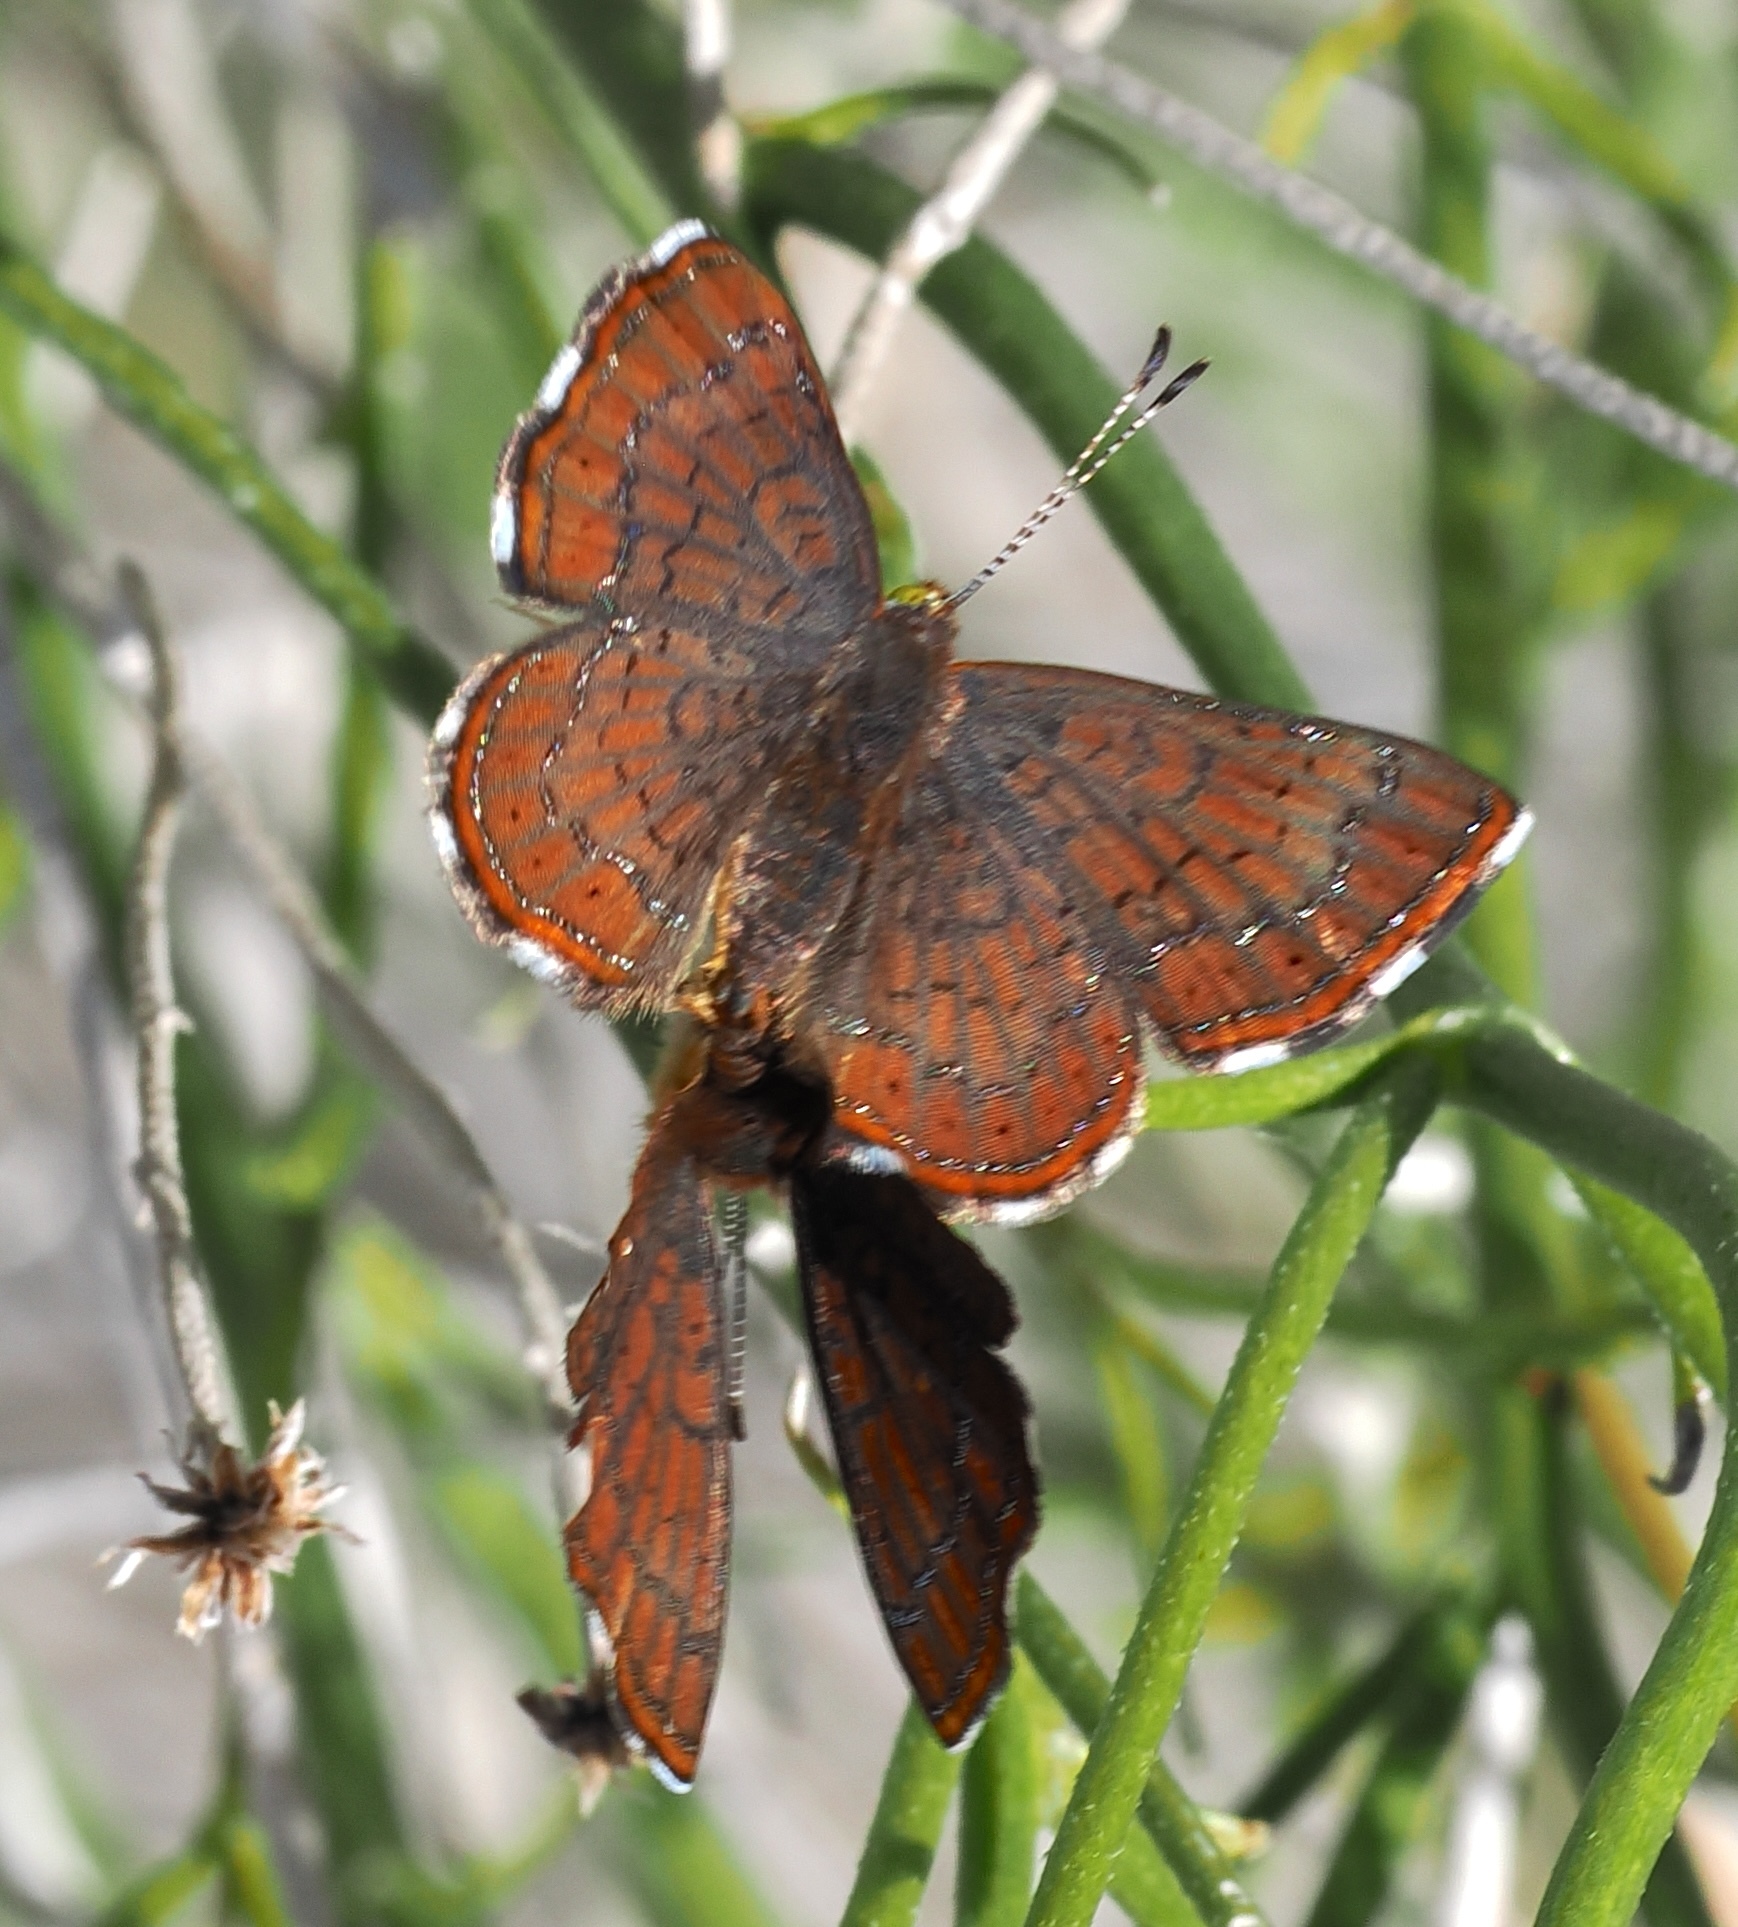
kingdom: Animalia
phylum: Arthropoda
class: Insecta
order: Lepidoptera
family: Lycaenidae
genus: Emesis
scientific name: Emesis wrighti
